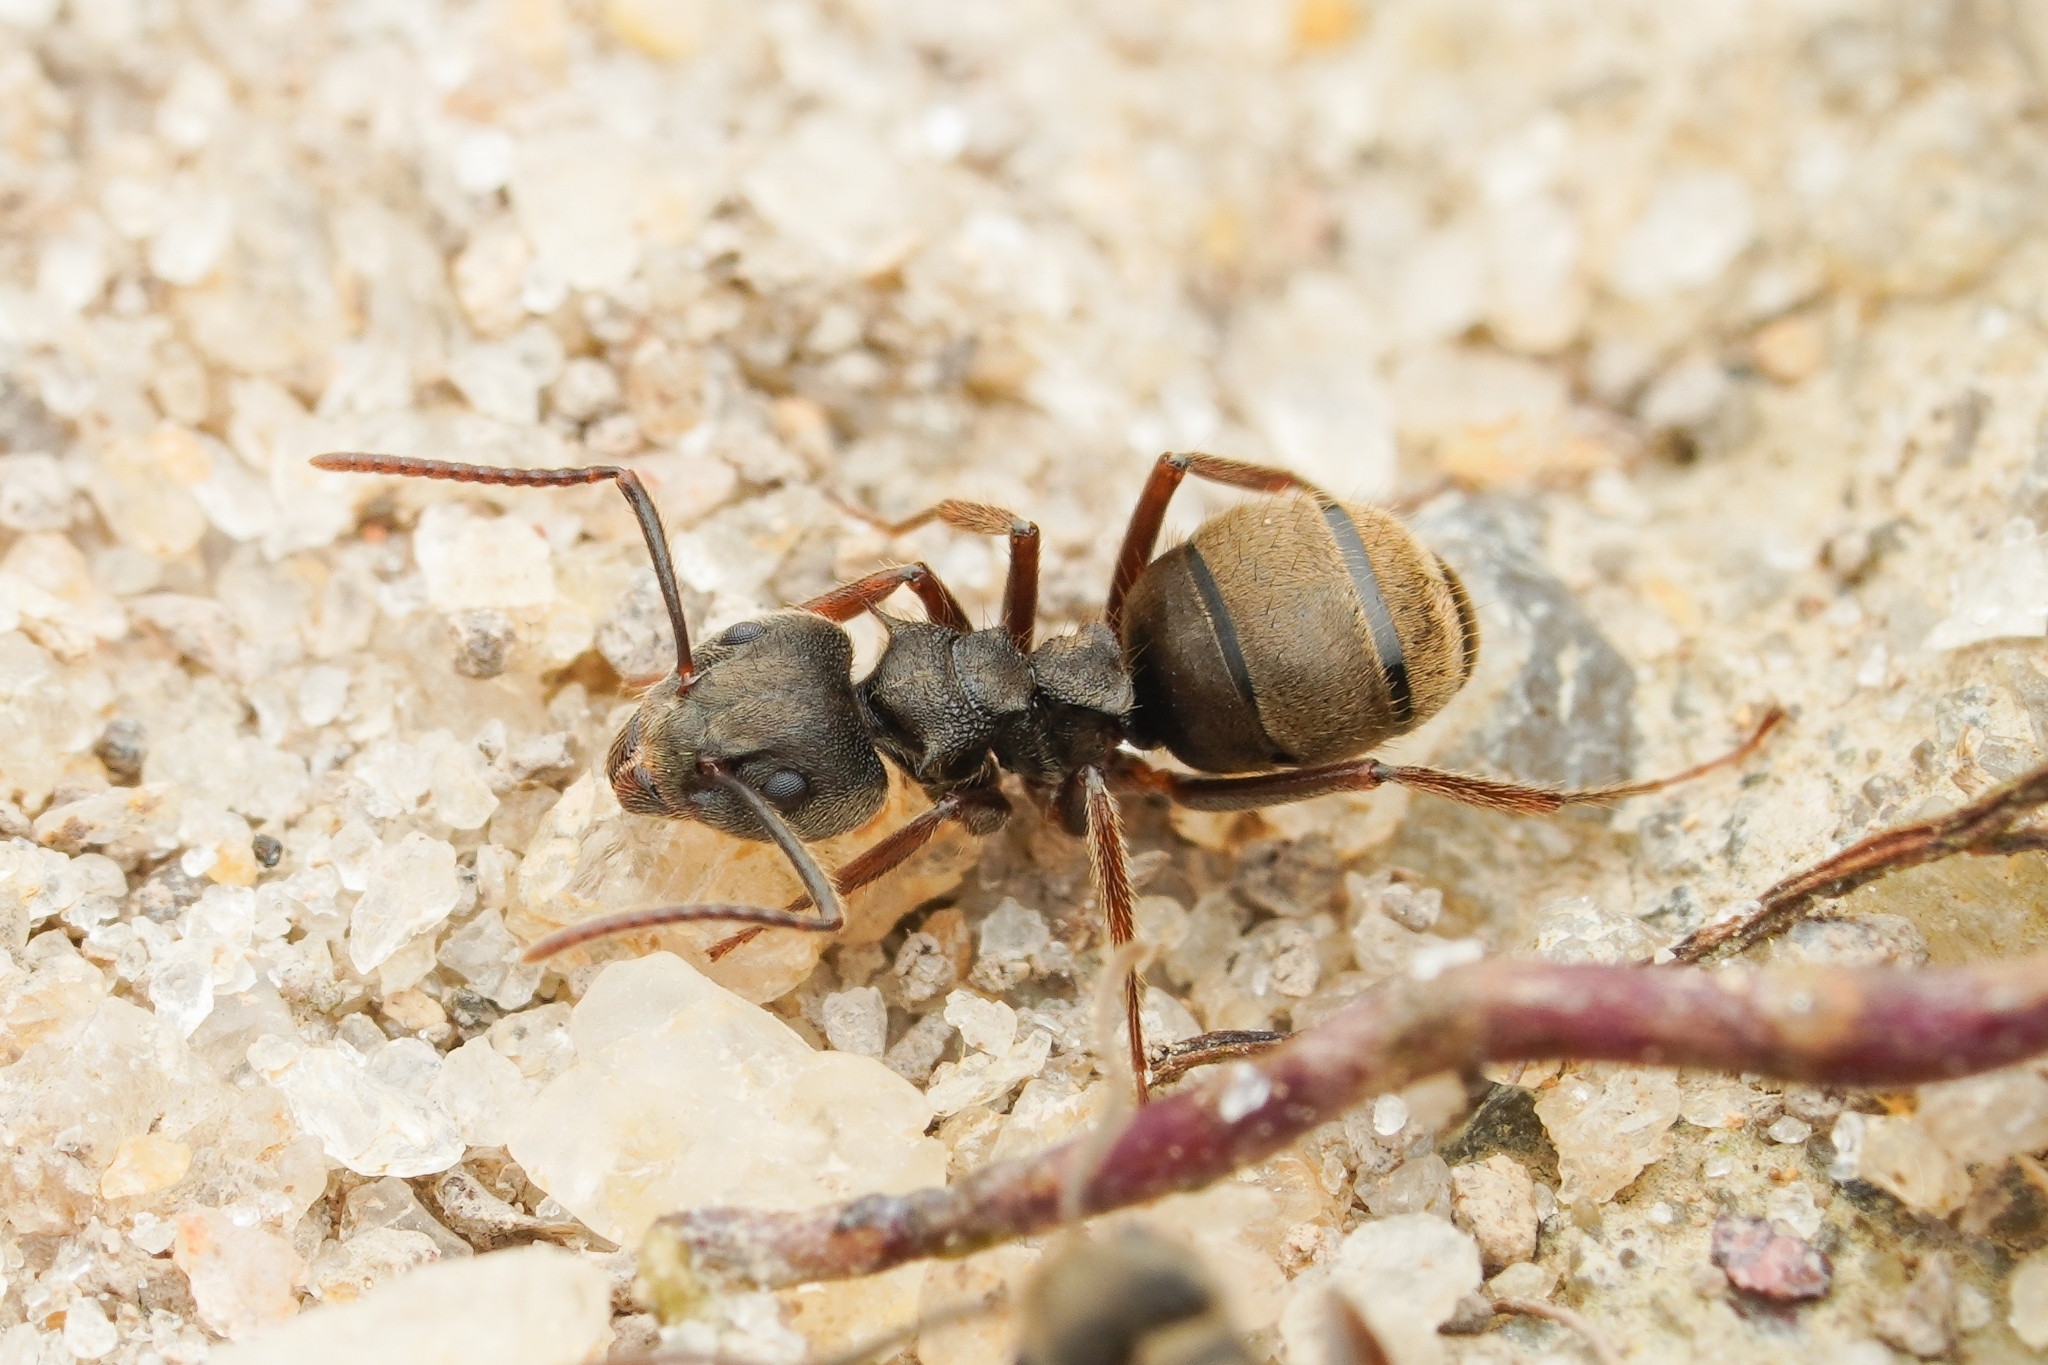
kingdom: Animalia
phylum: Arthropoda
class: Insecta
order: Hymenoptera
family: Formicidae
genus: Dolichoderus
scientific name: Dolichoderus bispinosus
